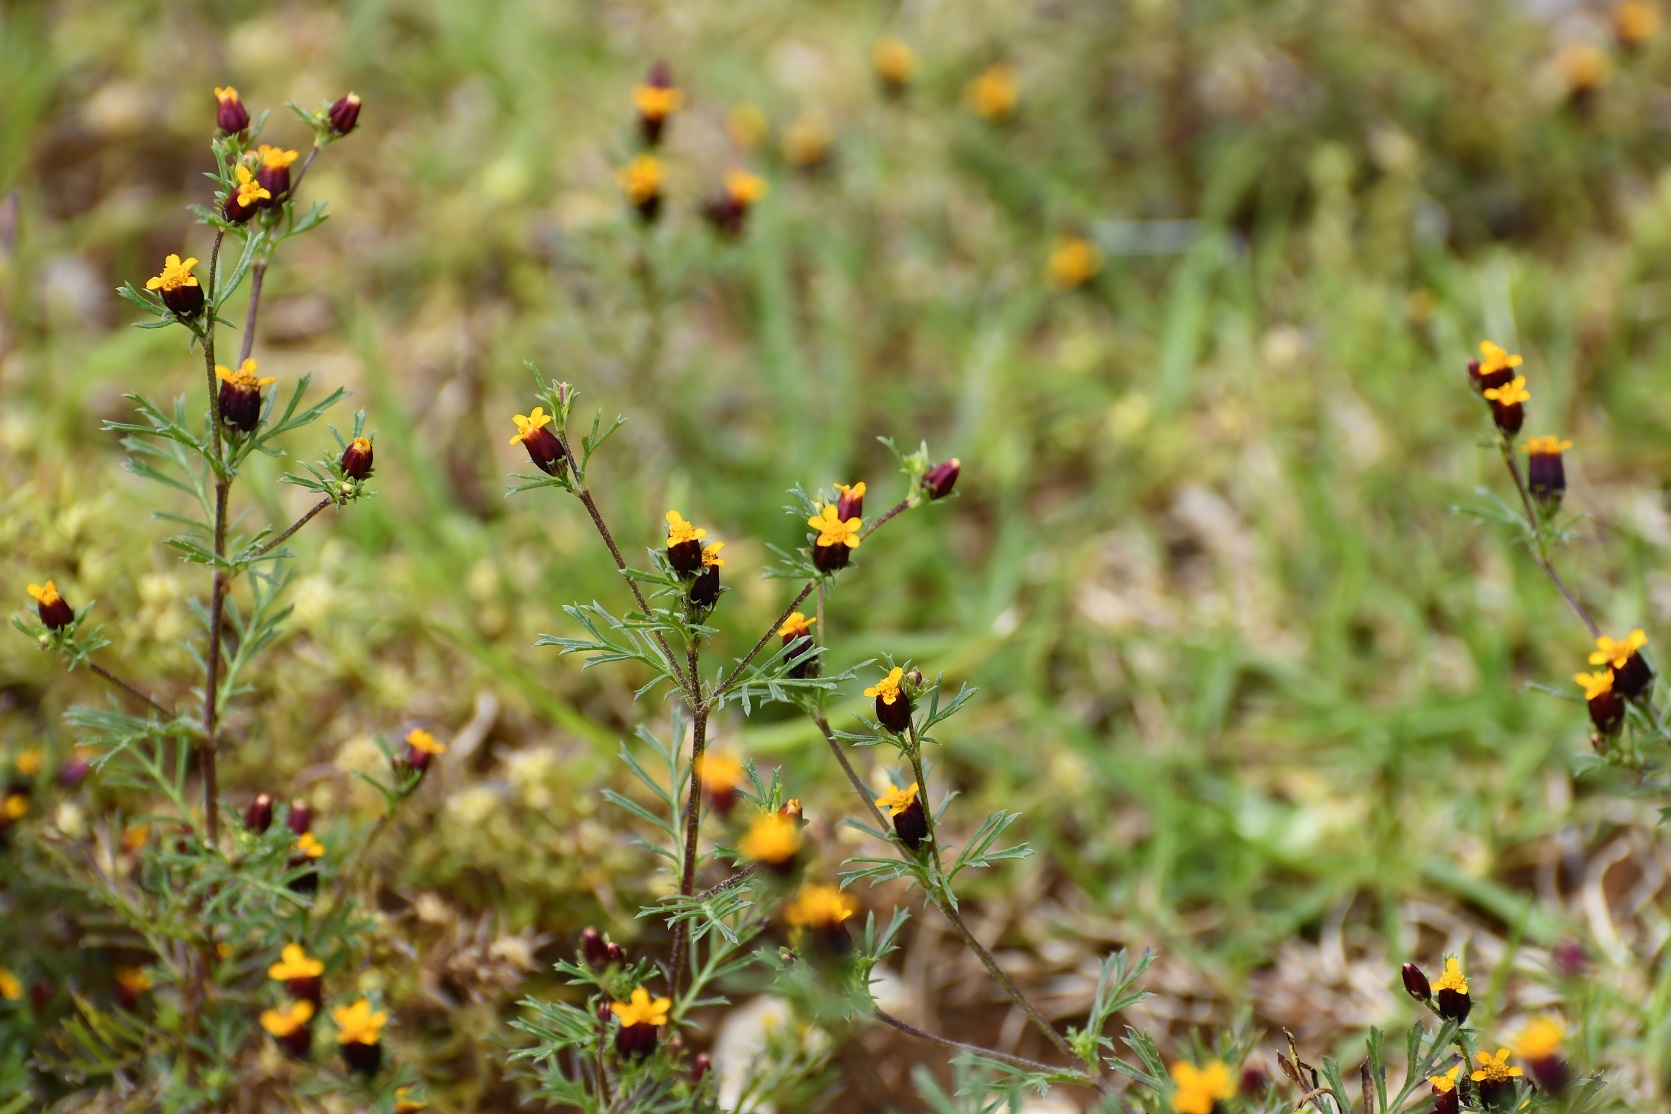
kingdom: Plantae
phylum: Tracheophyta
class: Magnoliopsida
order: Asterales
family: Asteraceae
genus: Dyssodia
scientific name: Dyssodia papposa
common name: Dogweed
